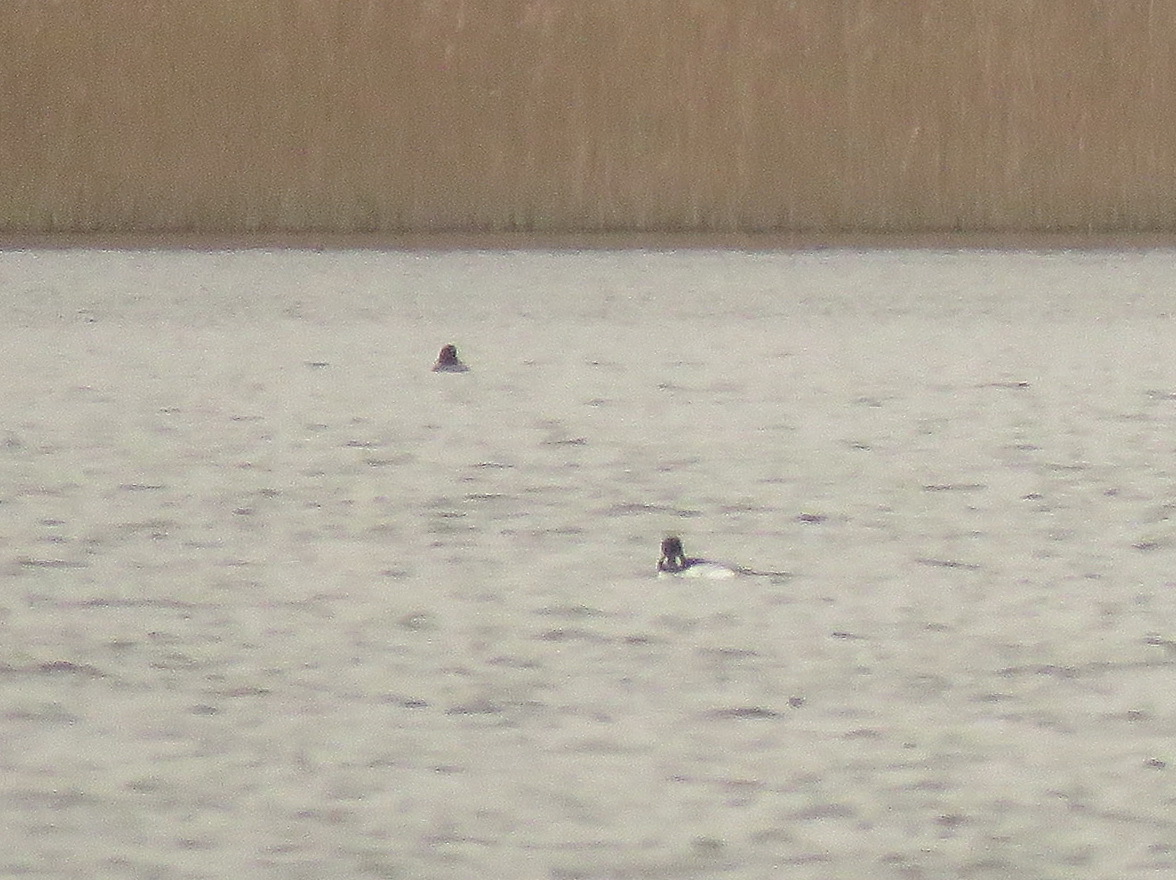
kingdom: Animalia
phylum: Chordata
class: Aves
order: Anseriformes
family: Anatidae
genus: Bucephala
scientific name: Bucephala clangula
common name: Common goldeneye
